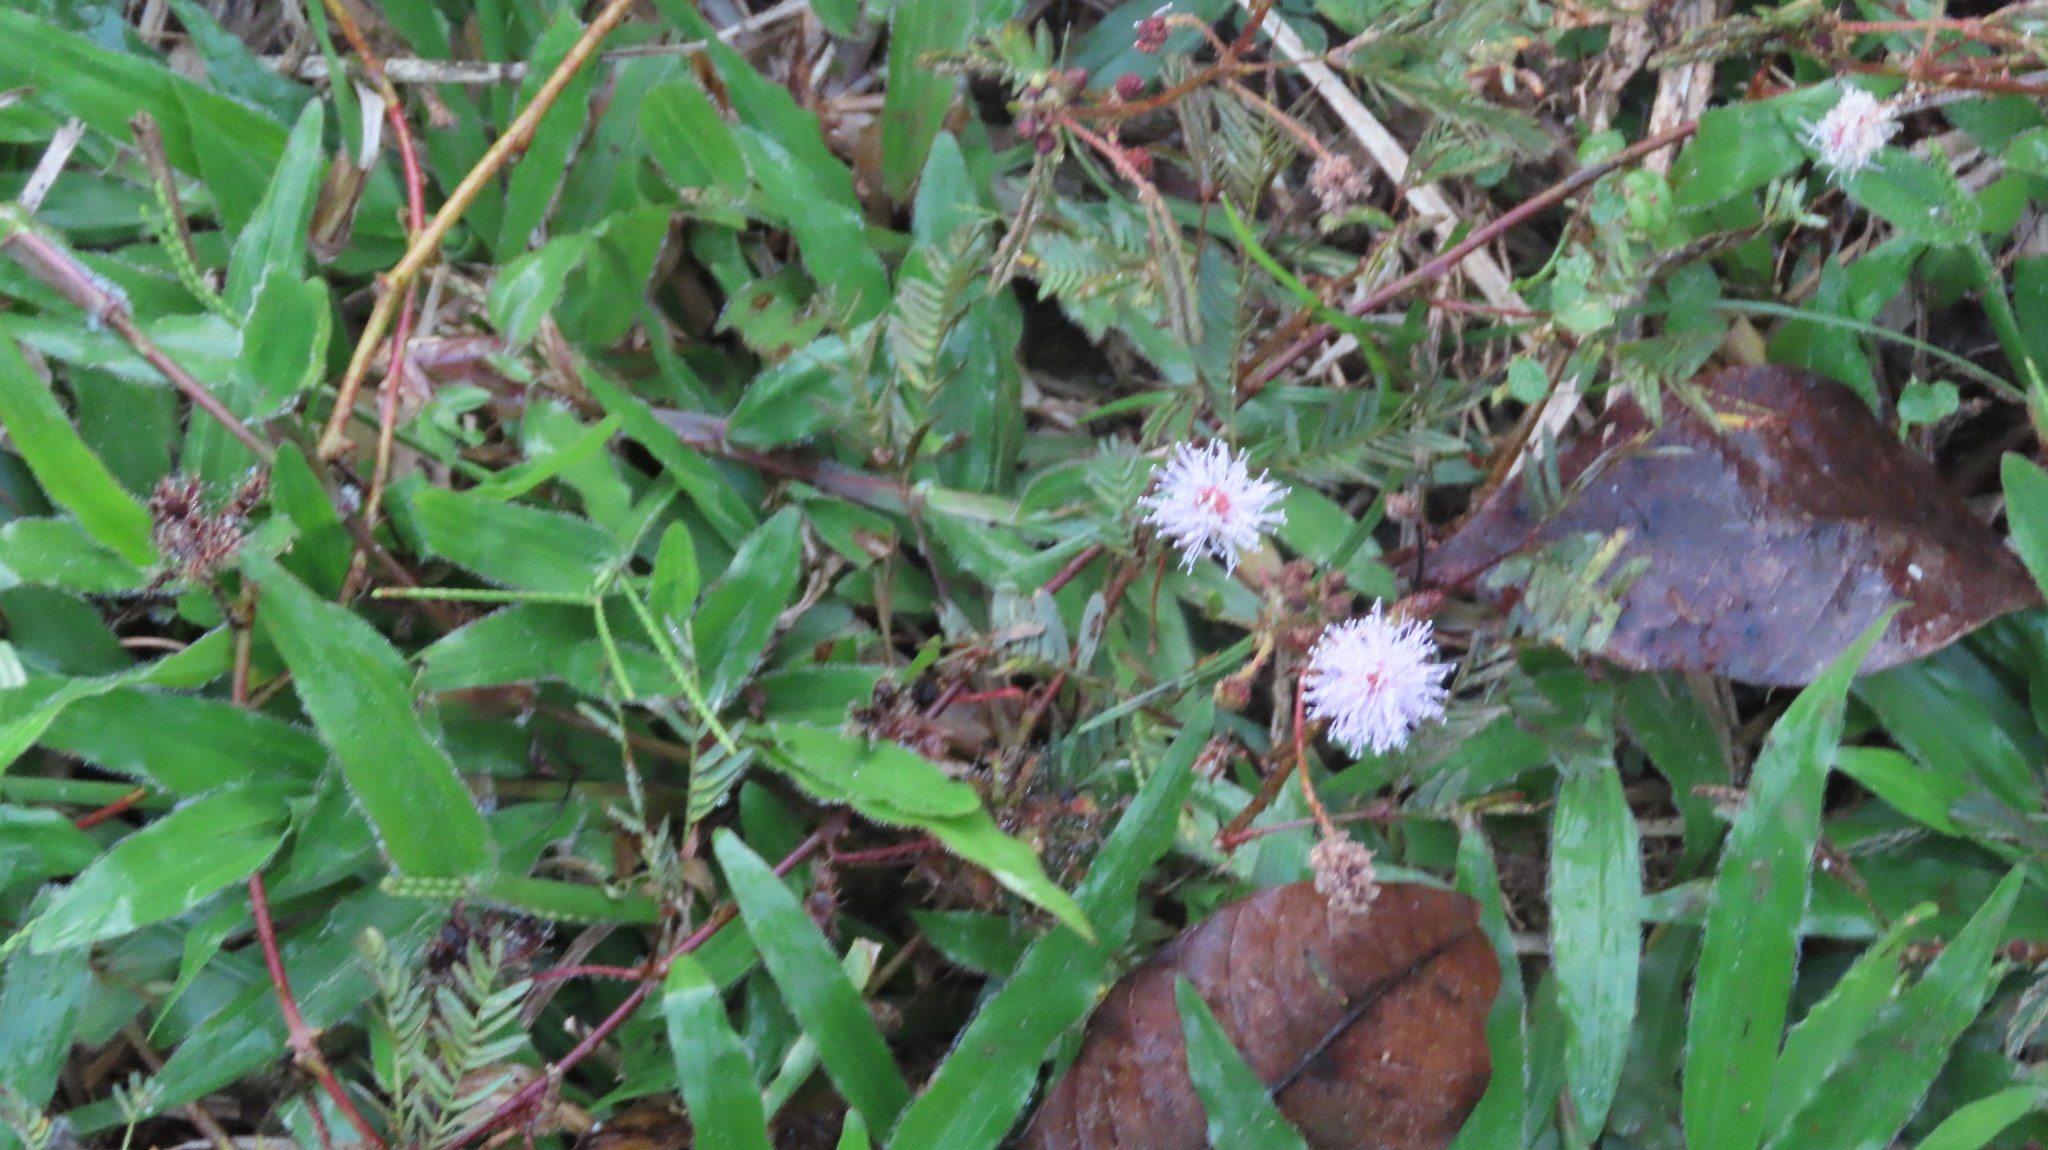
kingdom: Plantae
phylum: Tracheophyta
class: Magnoliopsida
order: Fabales
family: Fabaceae
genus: Mimosa
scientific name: Mimosa pudica
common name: Sensitive plant
